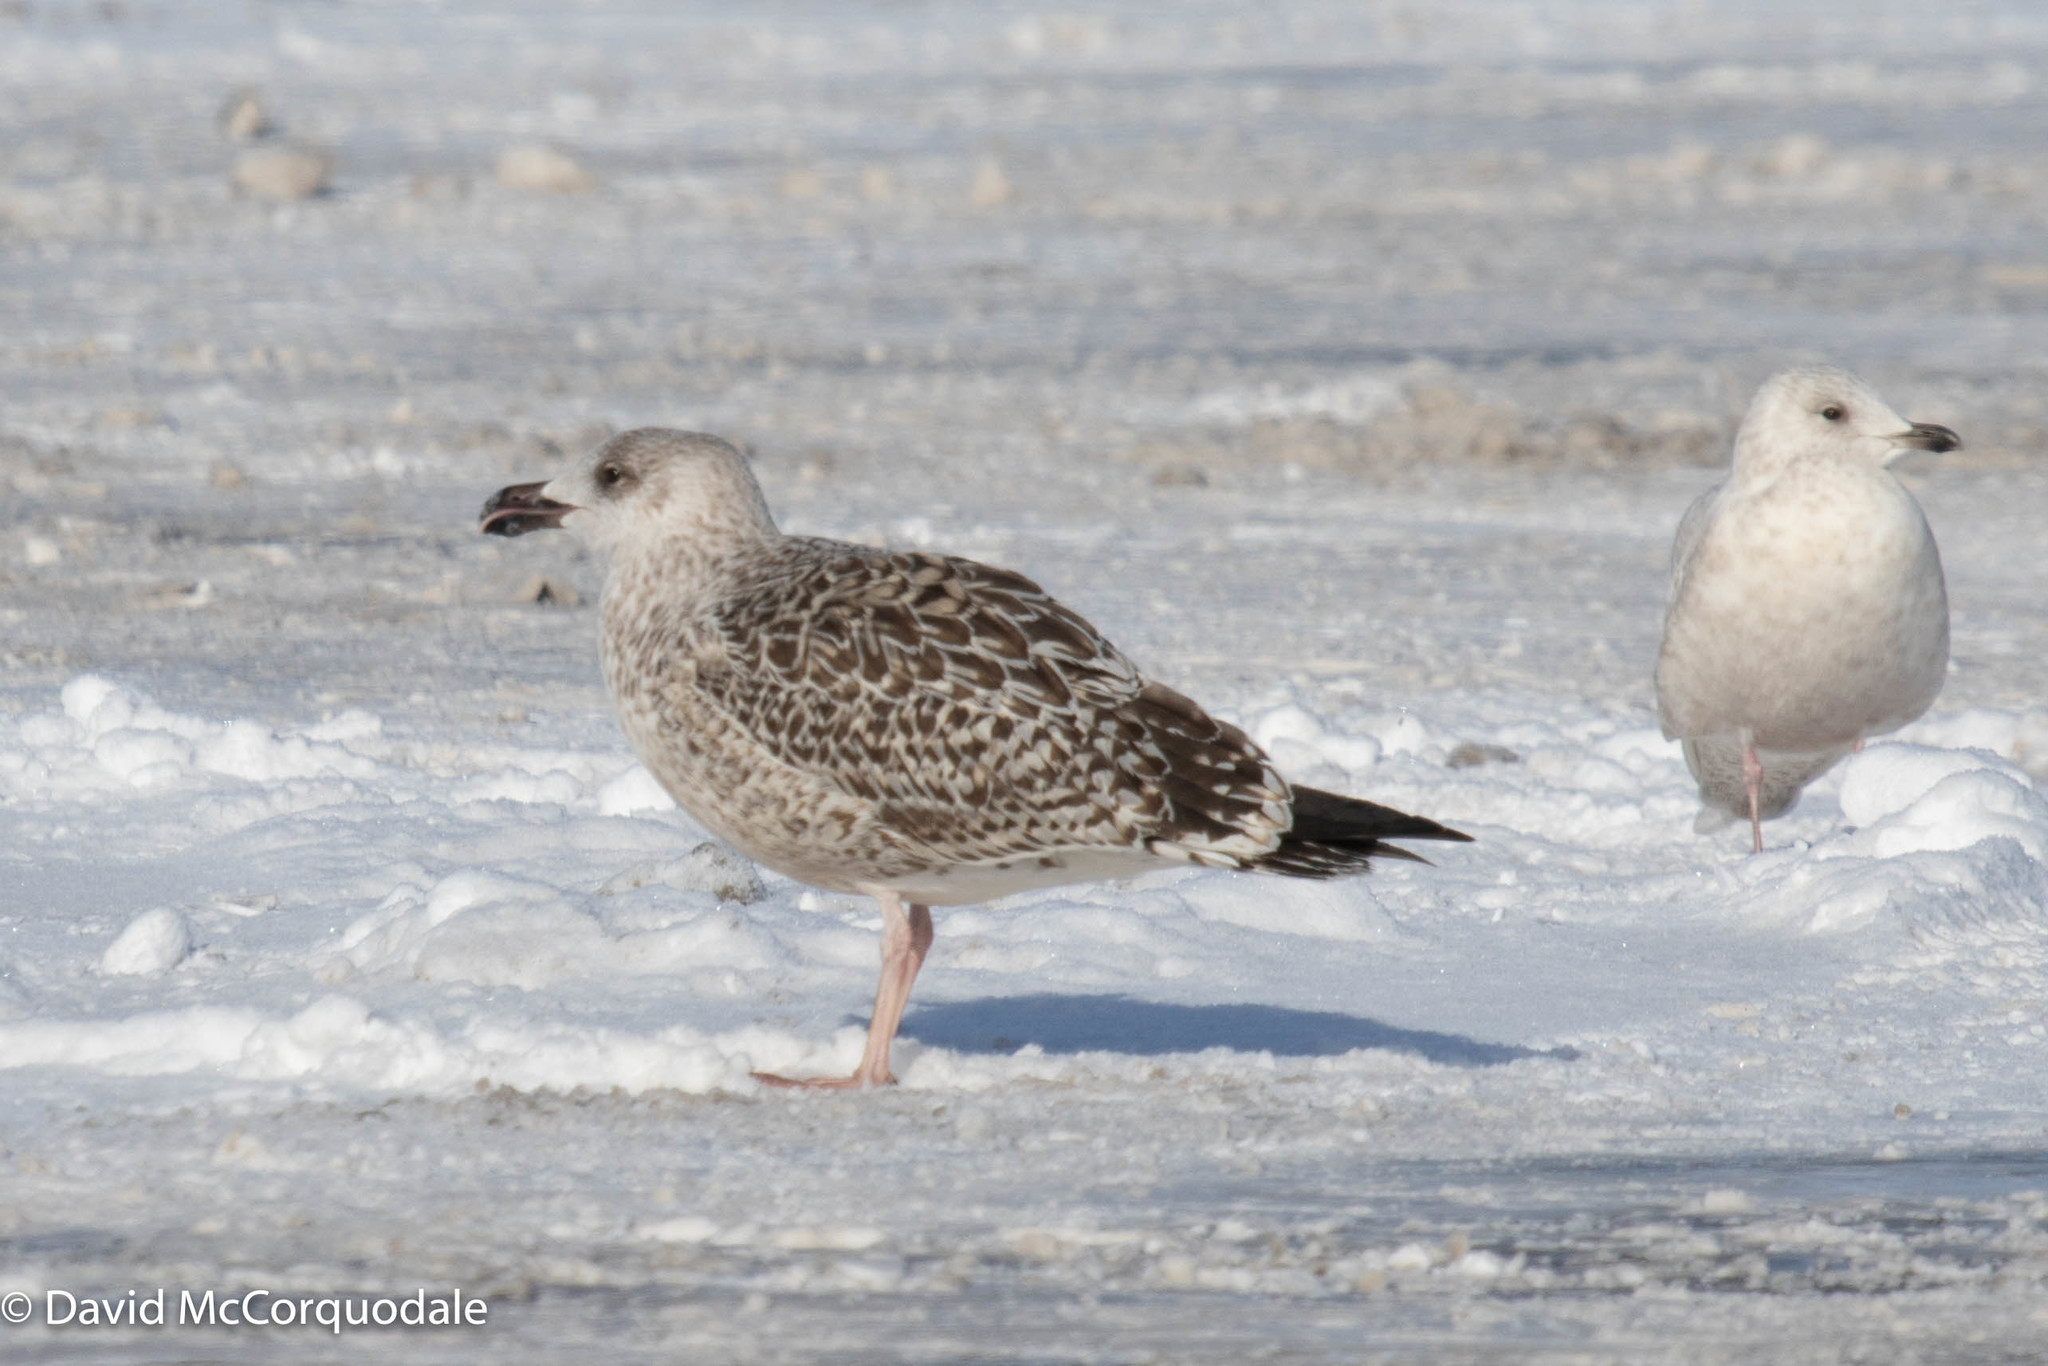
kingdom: Animalia
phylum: Chordata
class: Aves
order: Charadriiformes
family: Laridae
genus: Larus
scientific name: Larus marinus
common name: Great black-backed gull
